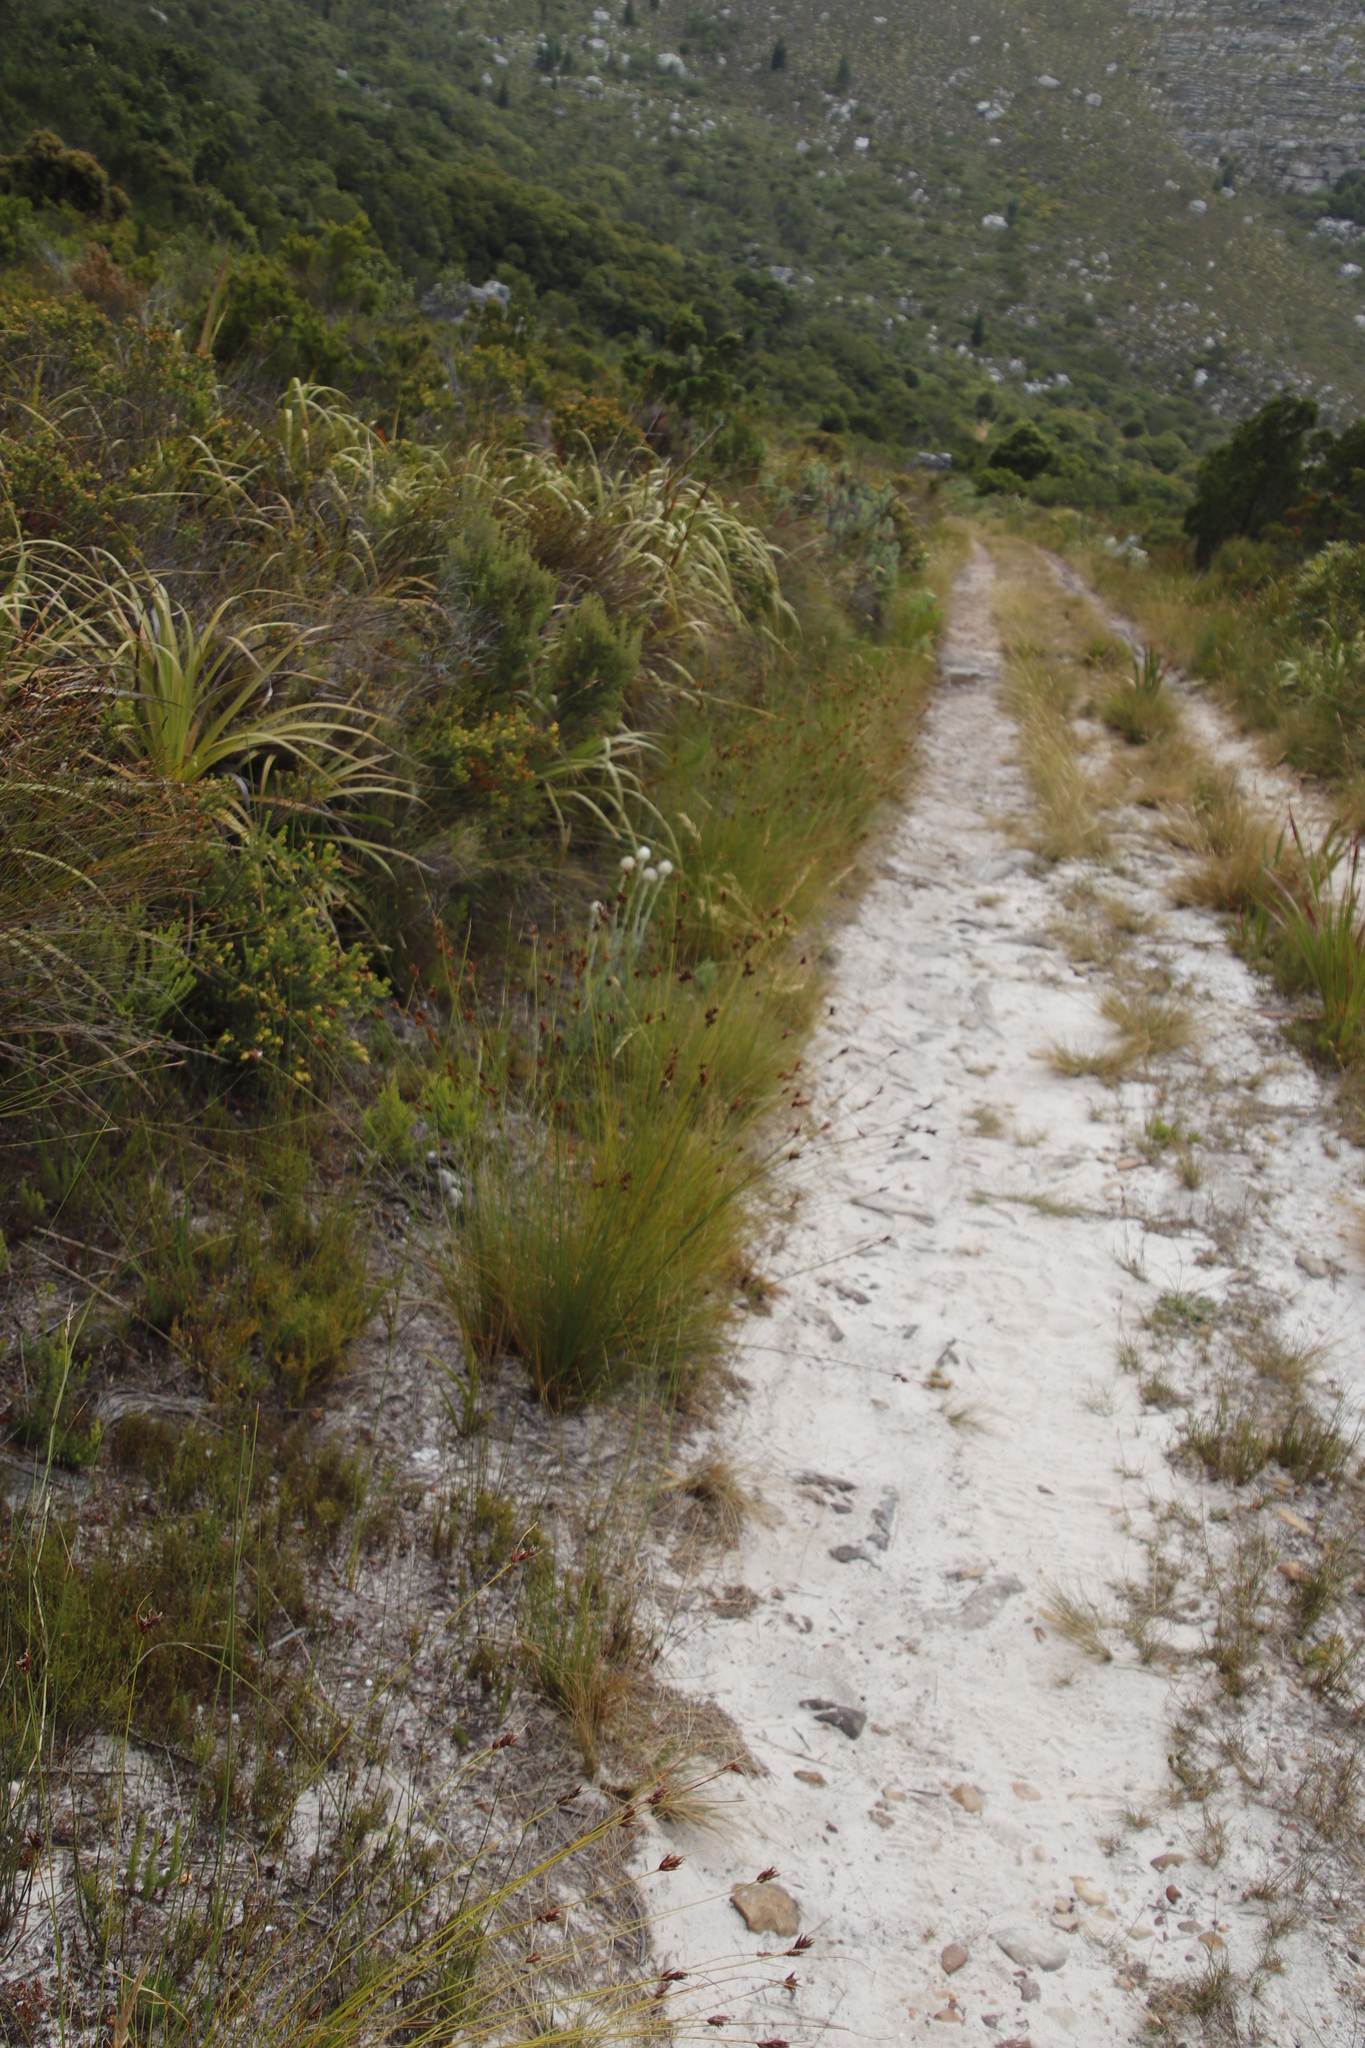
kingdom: Plantae
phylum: Tracheophyta
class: Liliopsida
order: Poales
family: Cyperaceae
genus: Schoenus
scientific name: Schoenus compar
